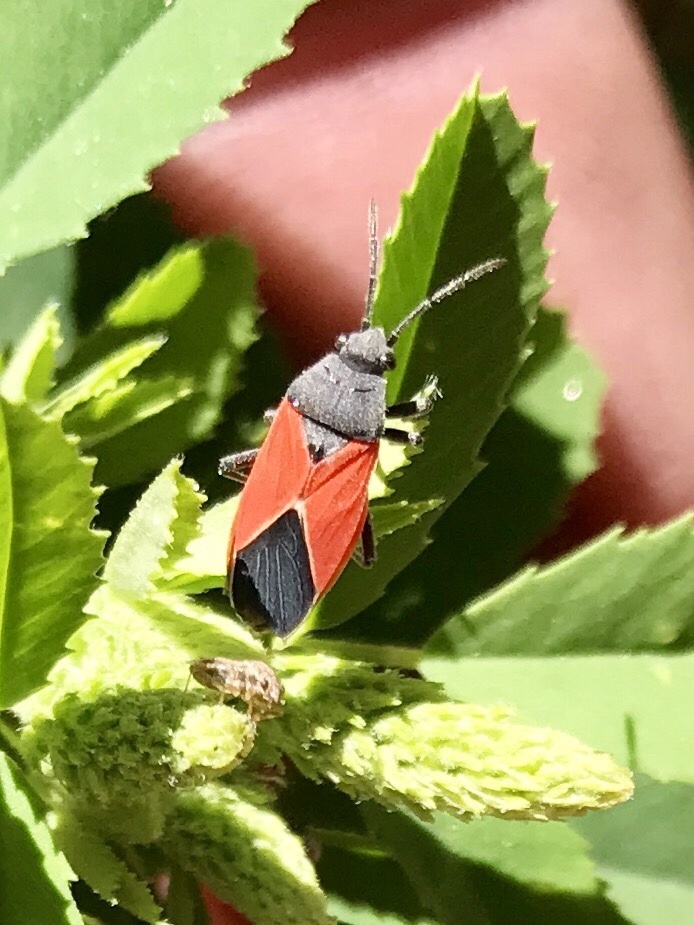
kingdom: Animalia
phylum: Arthropoda
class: Insecta
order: Hemiptera
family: Lygaeidae
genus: Melanopleurus
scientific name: Melanopleurus belfragei
